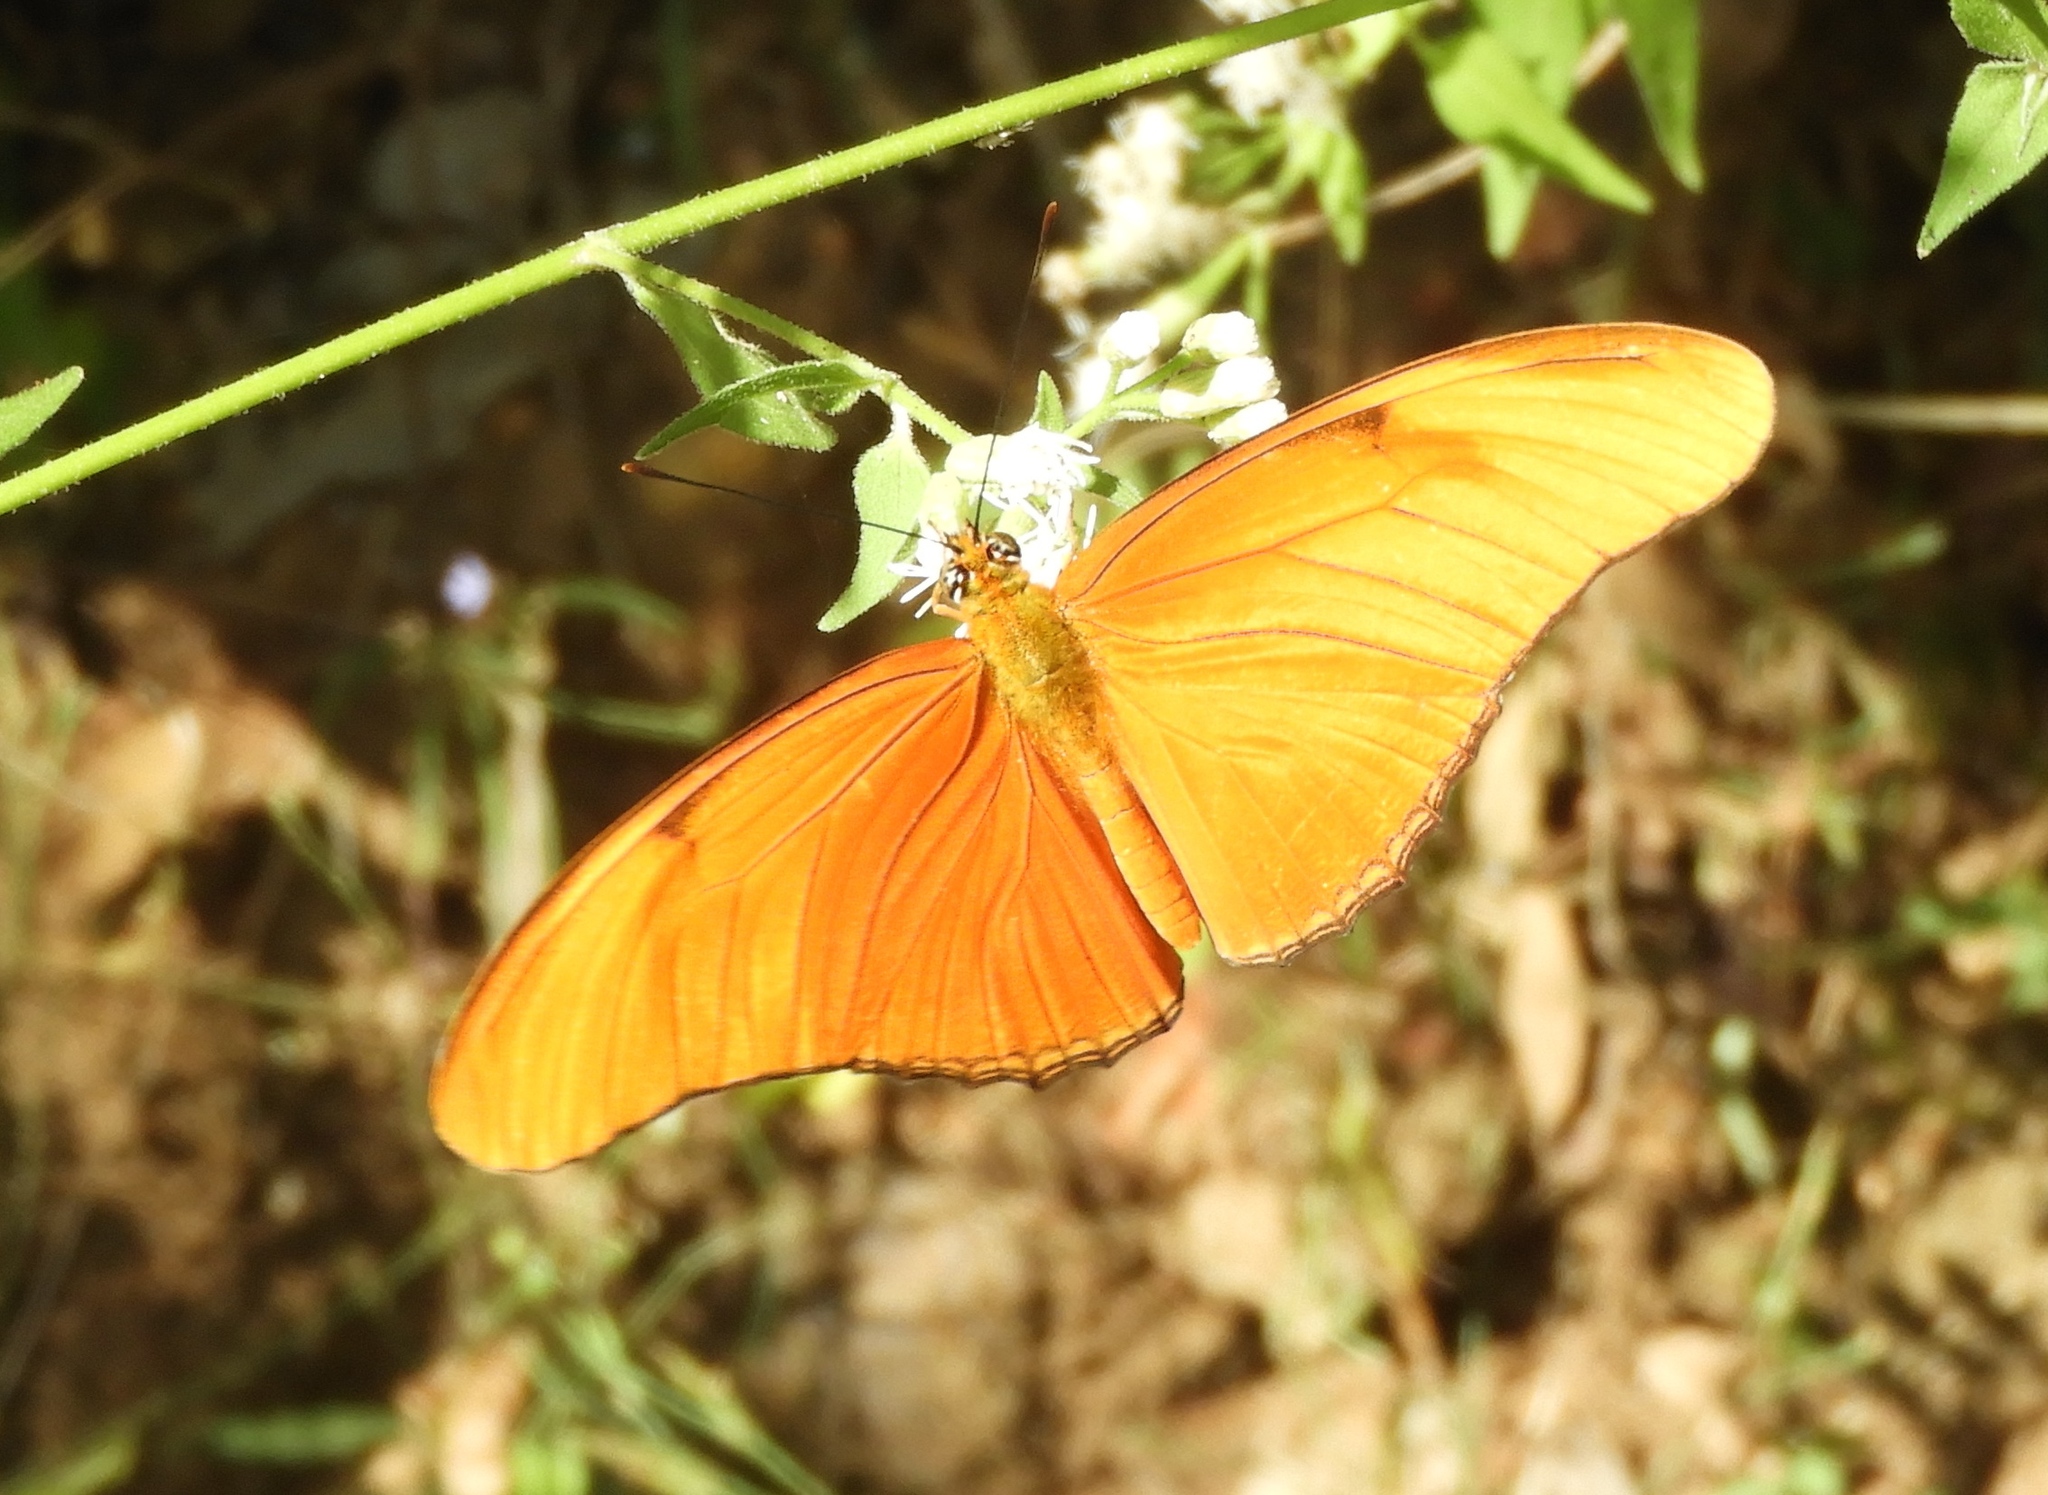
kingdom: Animalia
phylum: Arthropoda
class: Insecta
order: Lepidoptera
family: Nymphalidae
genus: Dryas
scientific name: Dryas iulia
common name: Flambeau
